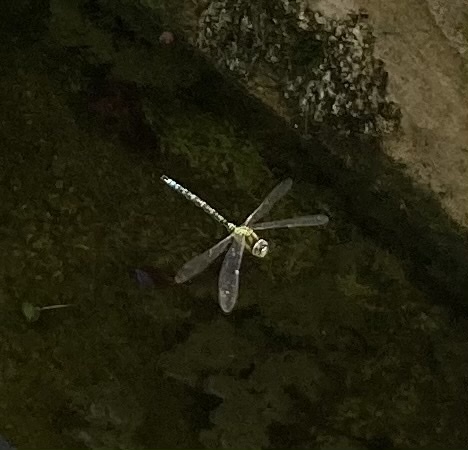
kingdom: Animalia
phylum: Arthropoda
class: Insecta
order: Odonata
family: Aeshnidae
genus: Aeshna
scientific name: Aeshna cyanea
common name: Southern hawker
